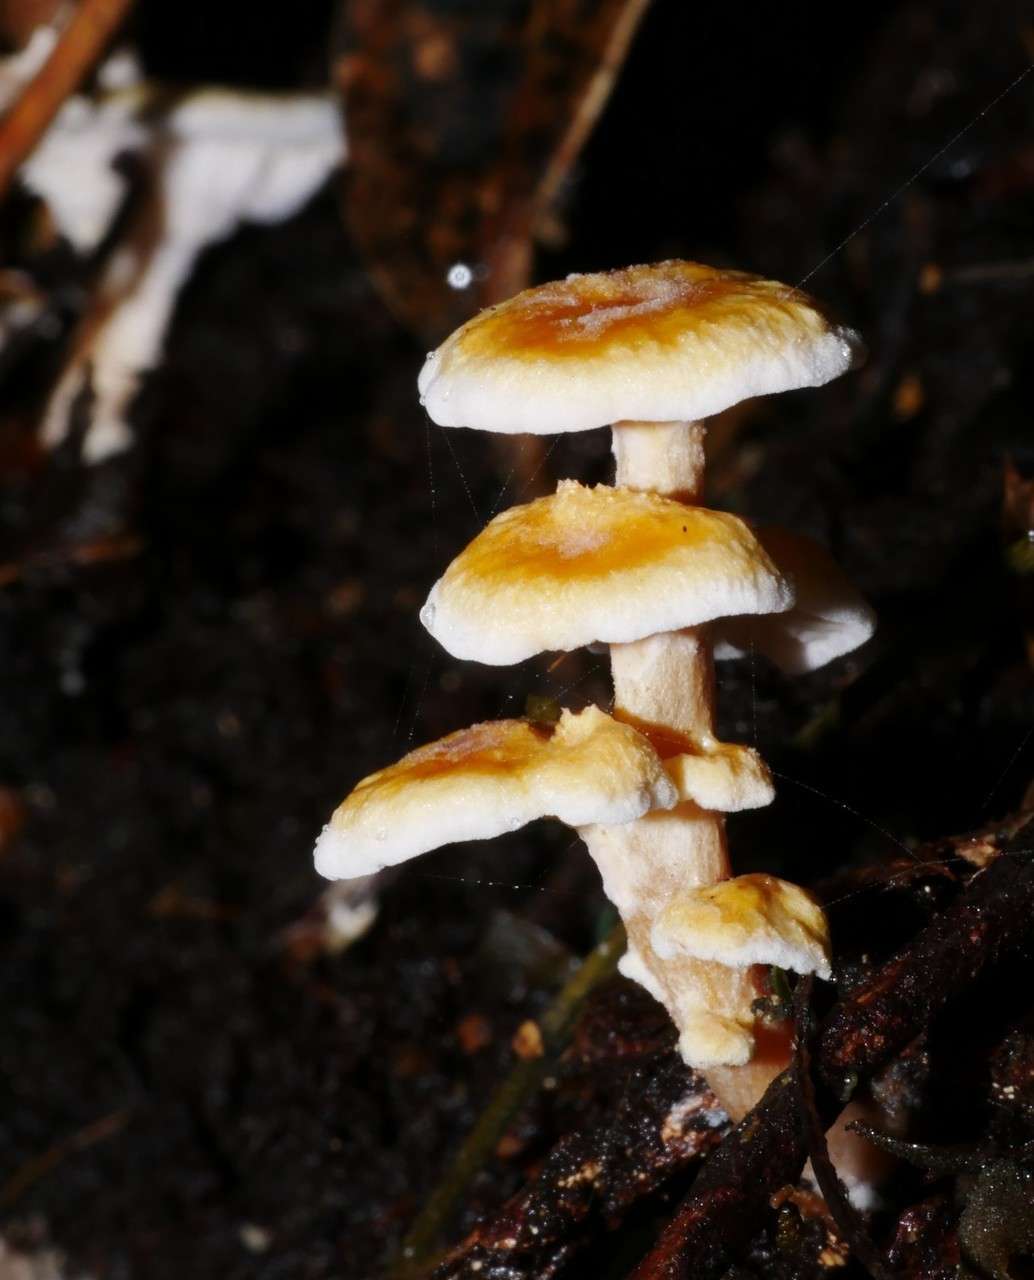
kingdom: Fungi
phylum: Basidiomycota
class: Agaricomycetes
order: Amylocorticiales
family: Amylocorticiaceae
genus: Podoserpula
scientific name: Podoserpula pusio
